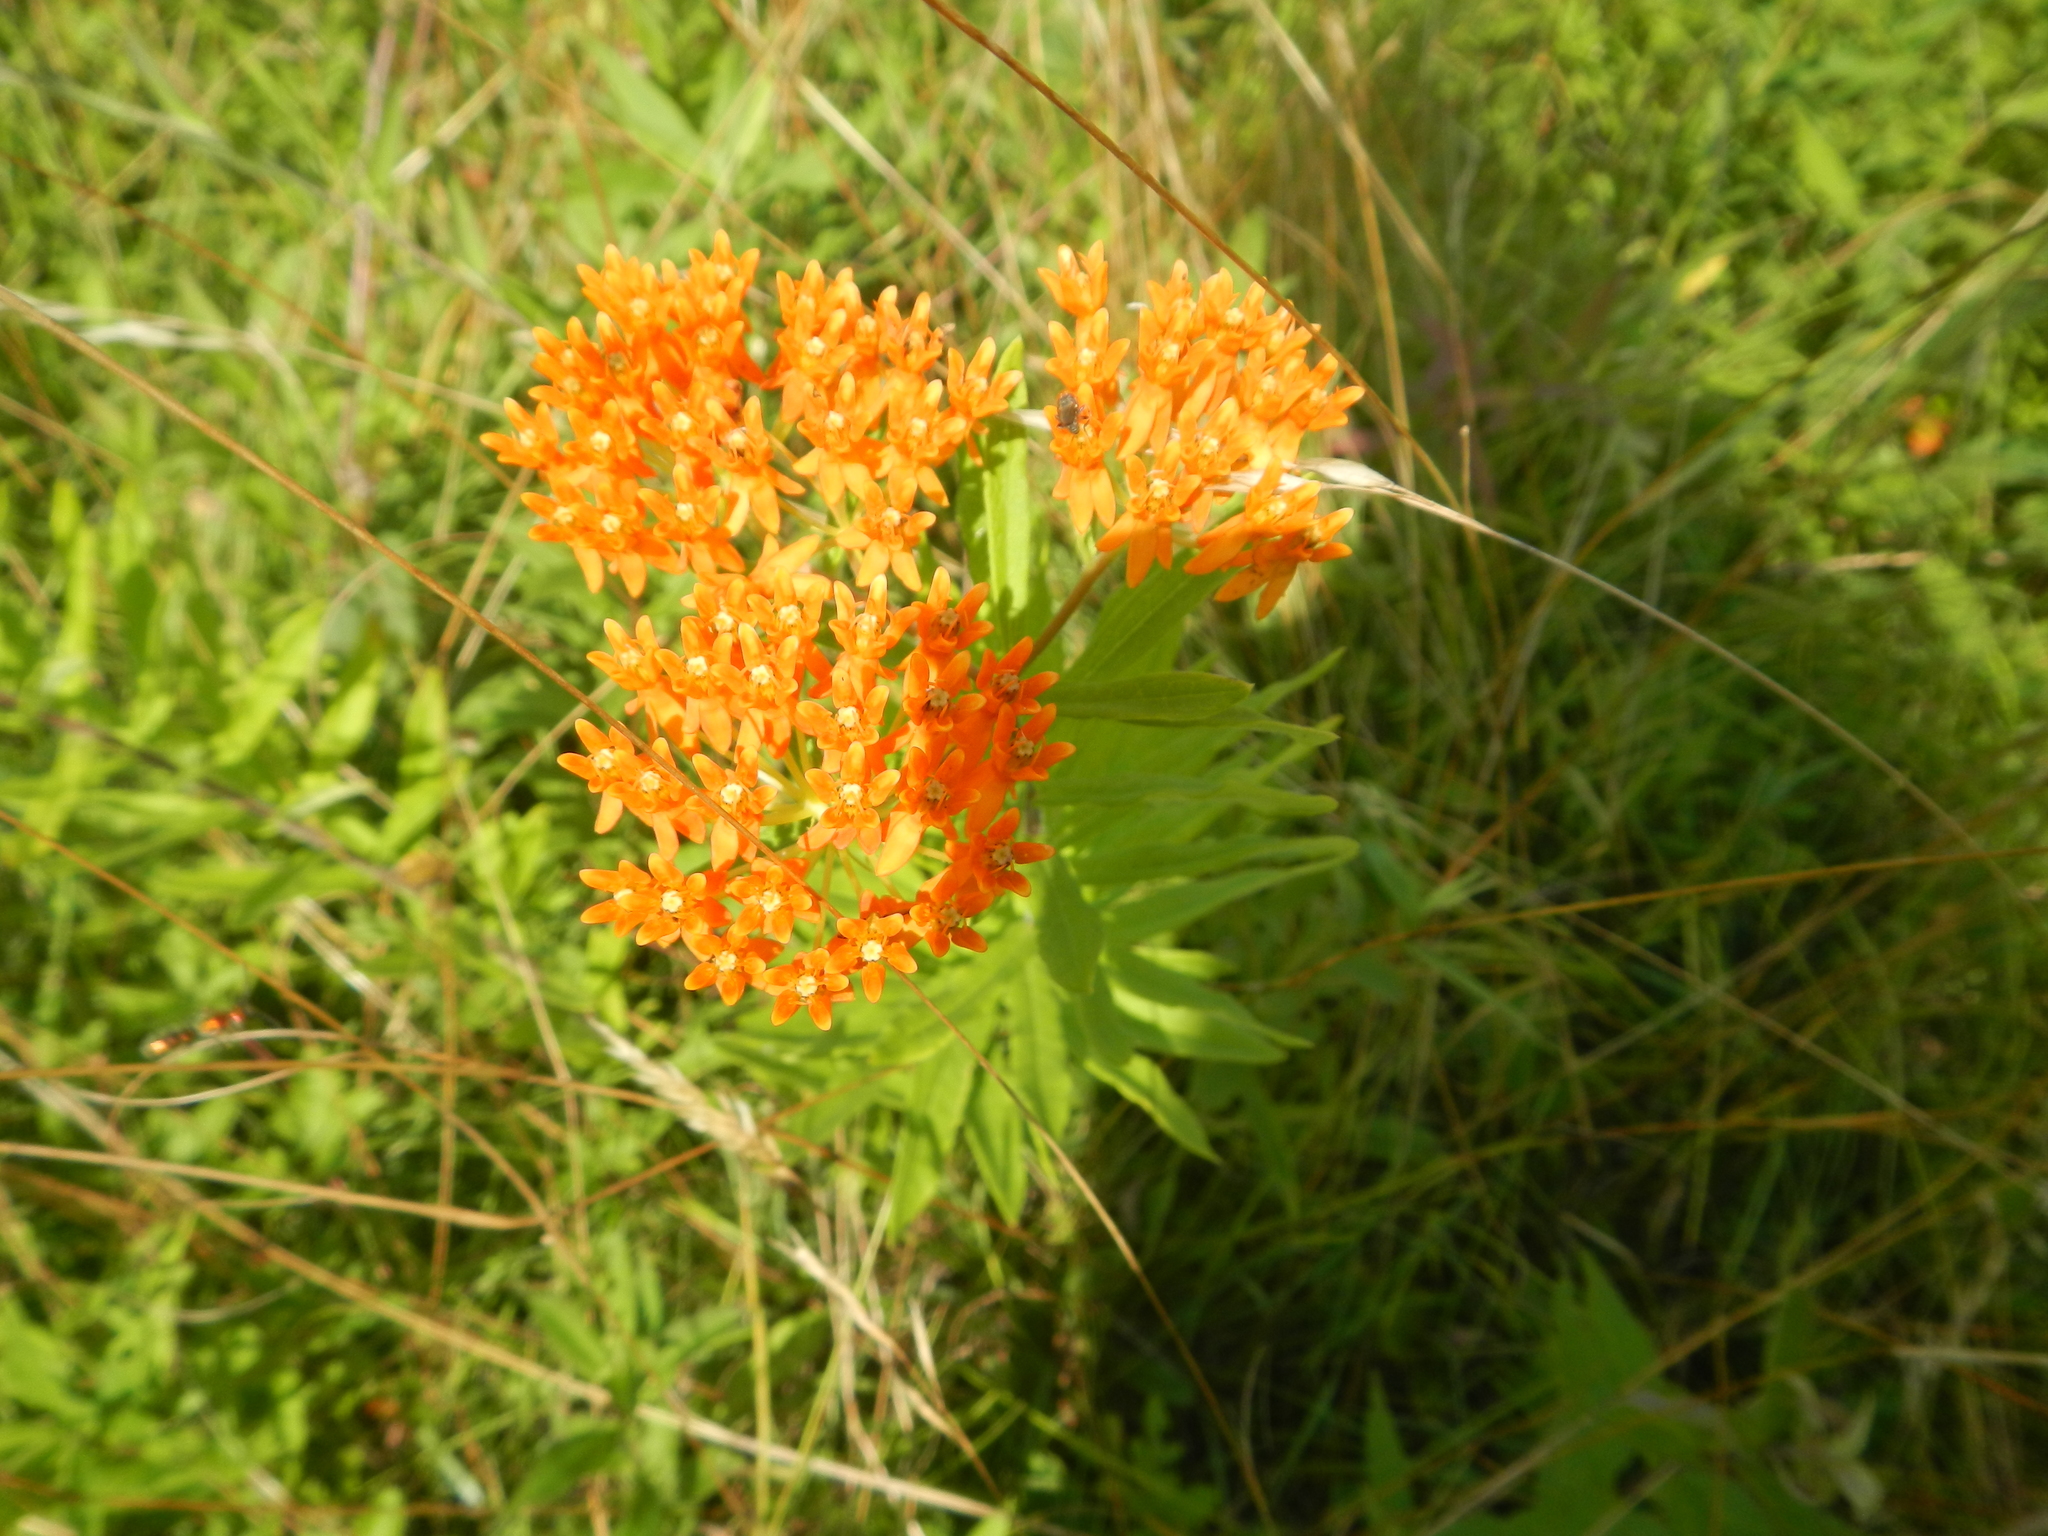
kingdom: Plantae
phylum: Tracheophyta
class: Magnoliopsida
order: Gentianales
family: Apocynaceae
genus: Asclepias
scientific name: Asclepias tuberosa
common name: Butterfly milkweed
